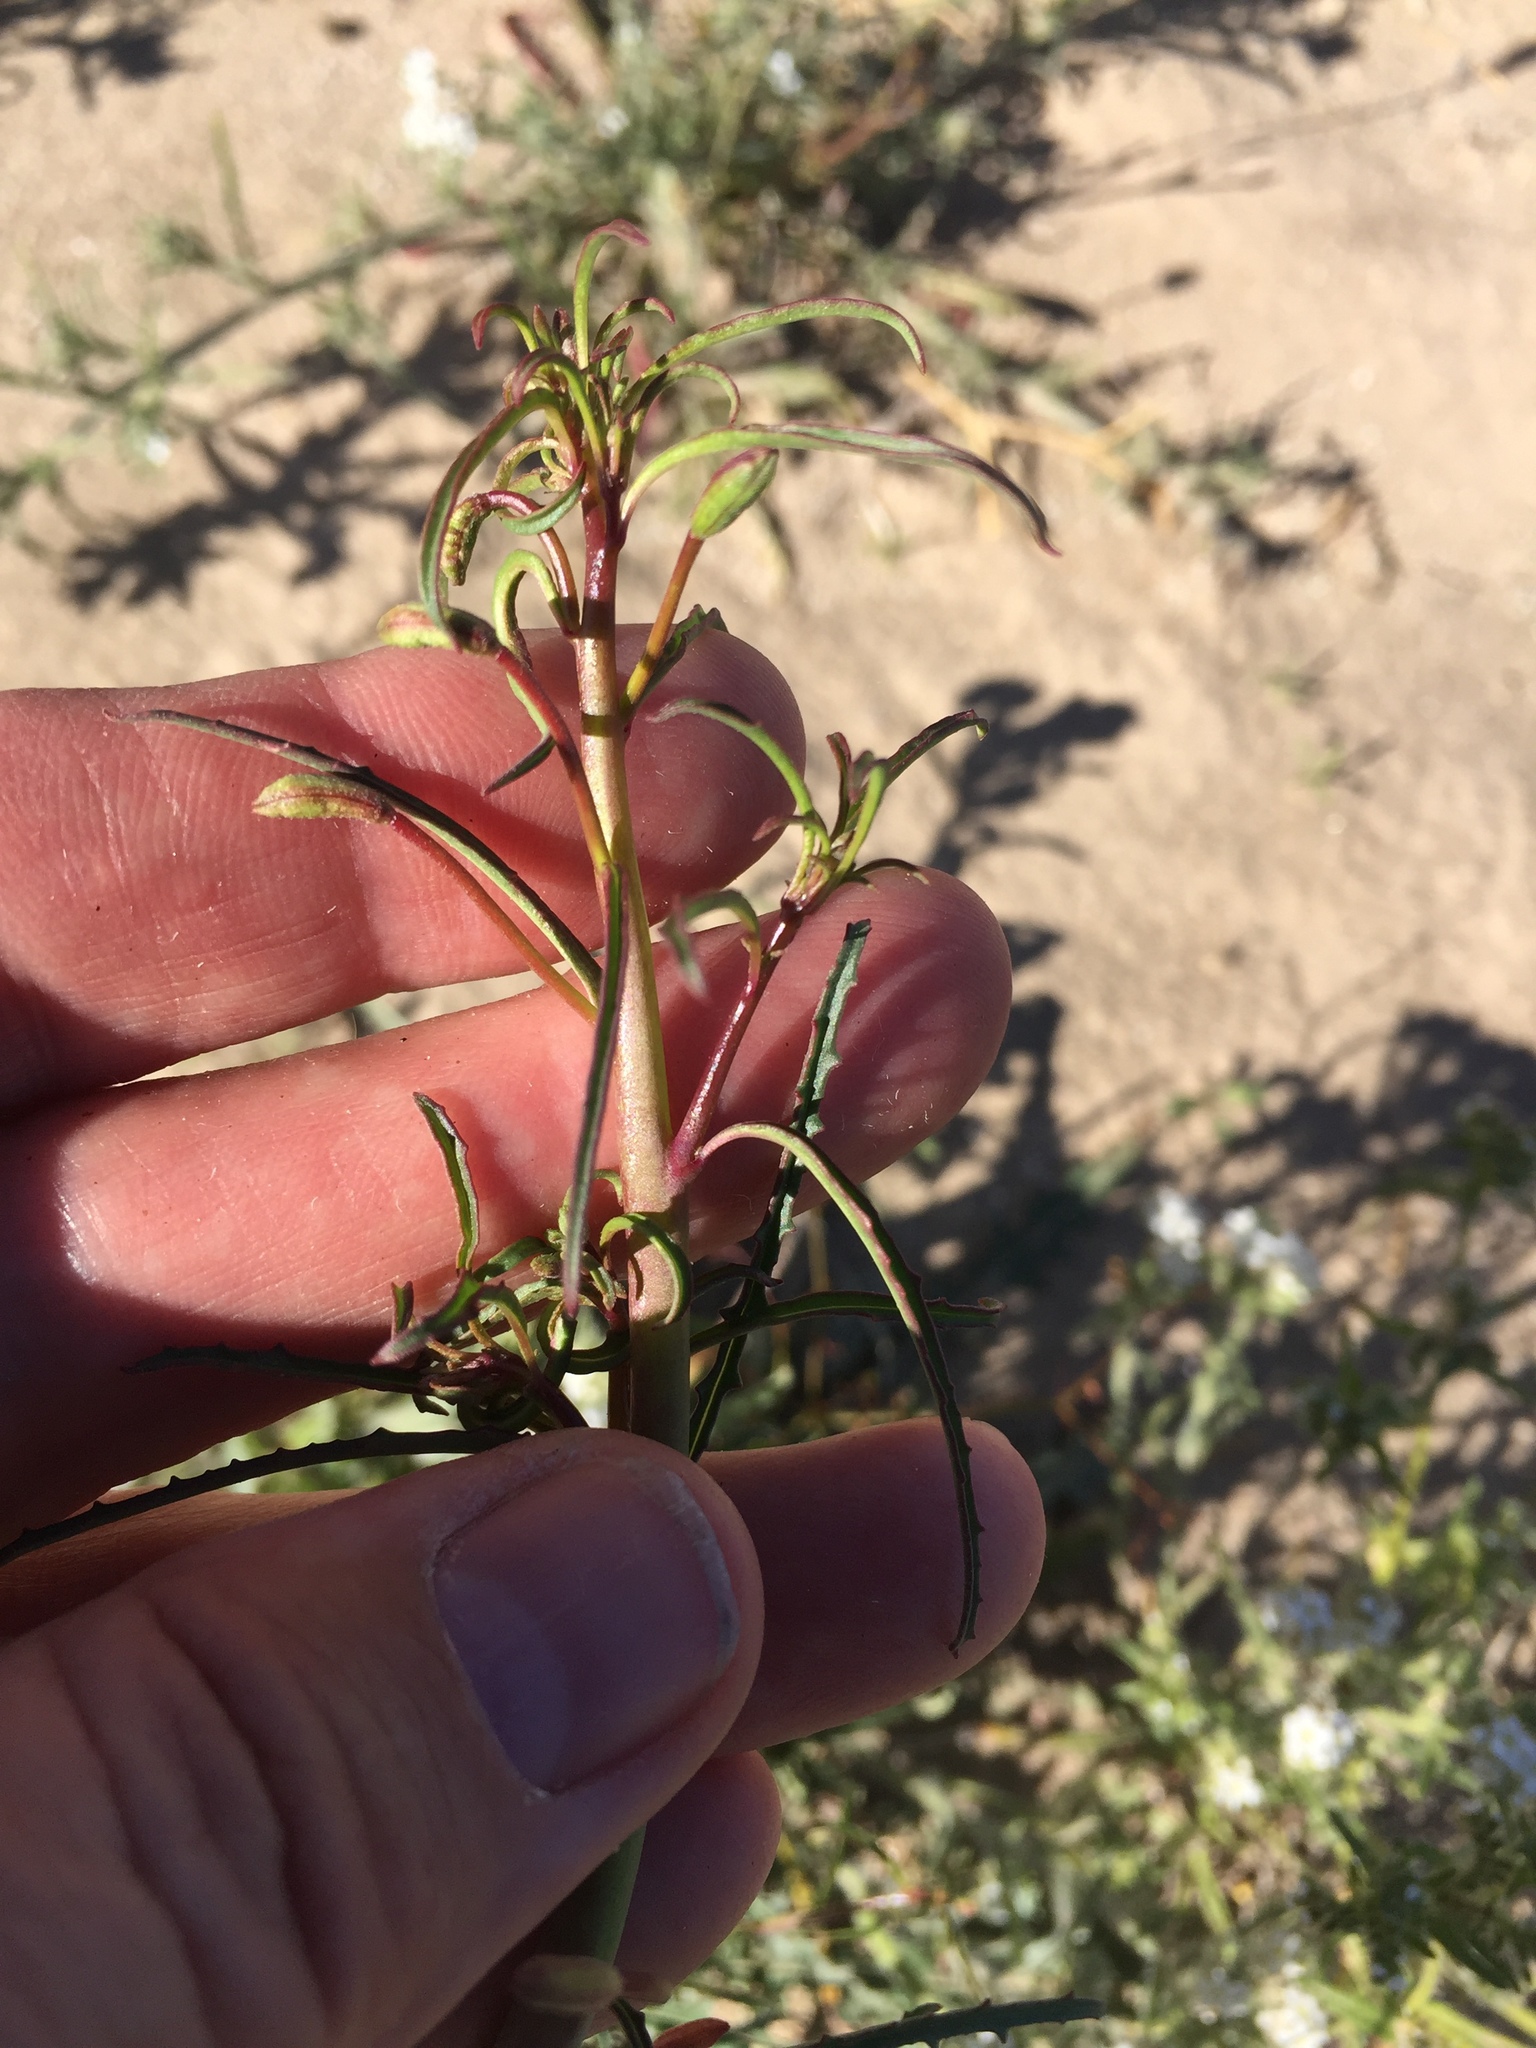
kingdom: Plantae
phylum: Tracheophyta
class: Magnoliopsida
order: Myrtales
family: Onagraceae
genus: Eulobus
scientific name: Eulobus californicus
